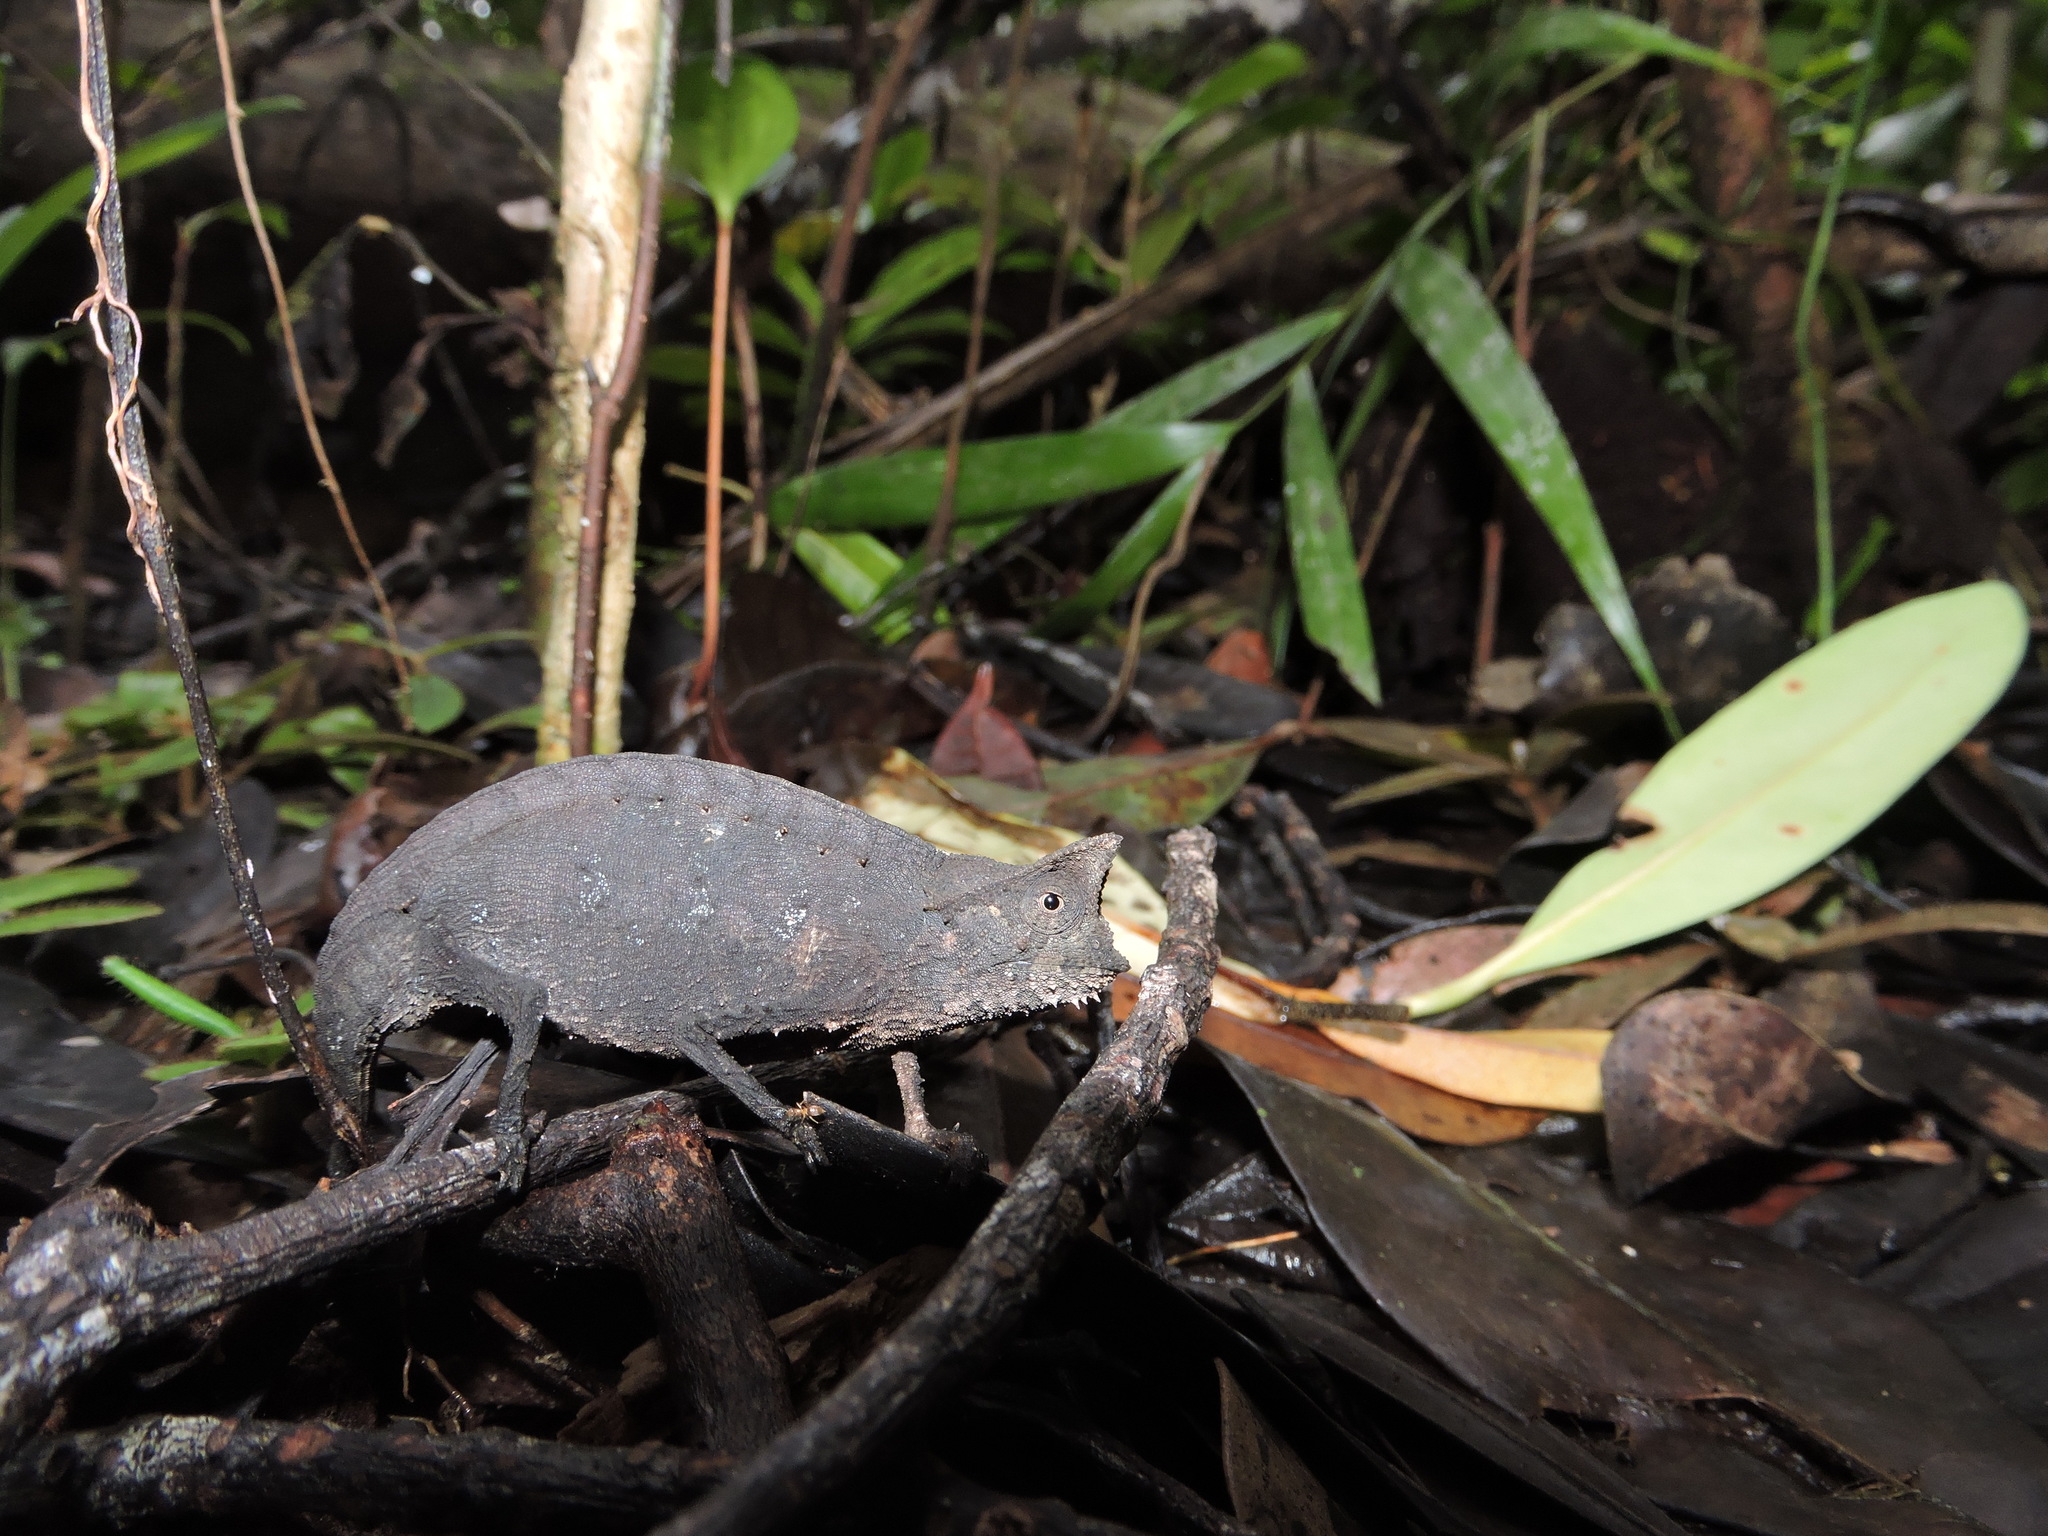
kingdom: Animalia
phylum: Chordata
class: Squamata
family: Chamaeleonidae
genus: Brookesia
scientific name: Brookesia superciliaris
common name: Brown leaf chameleon
